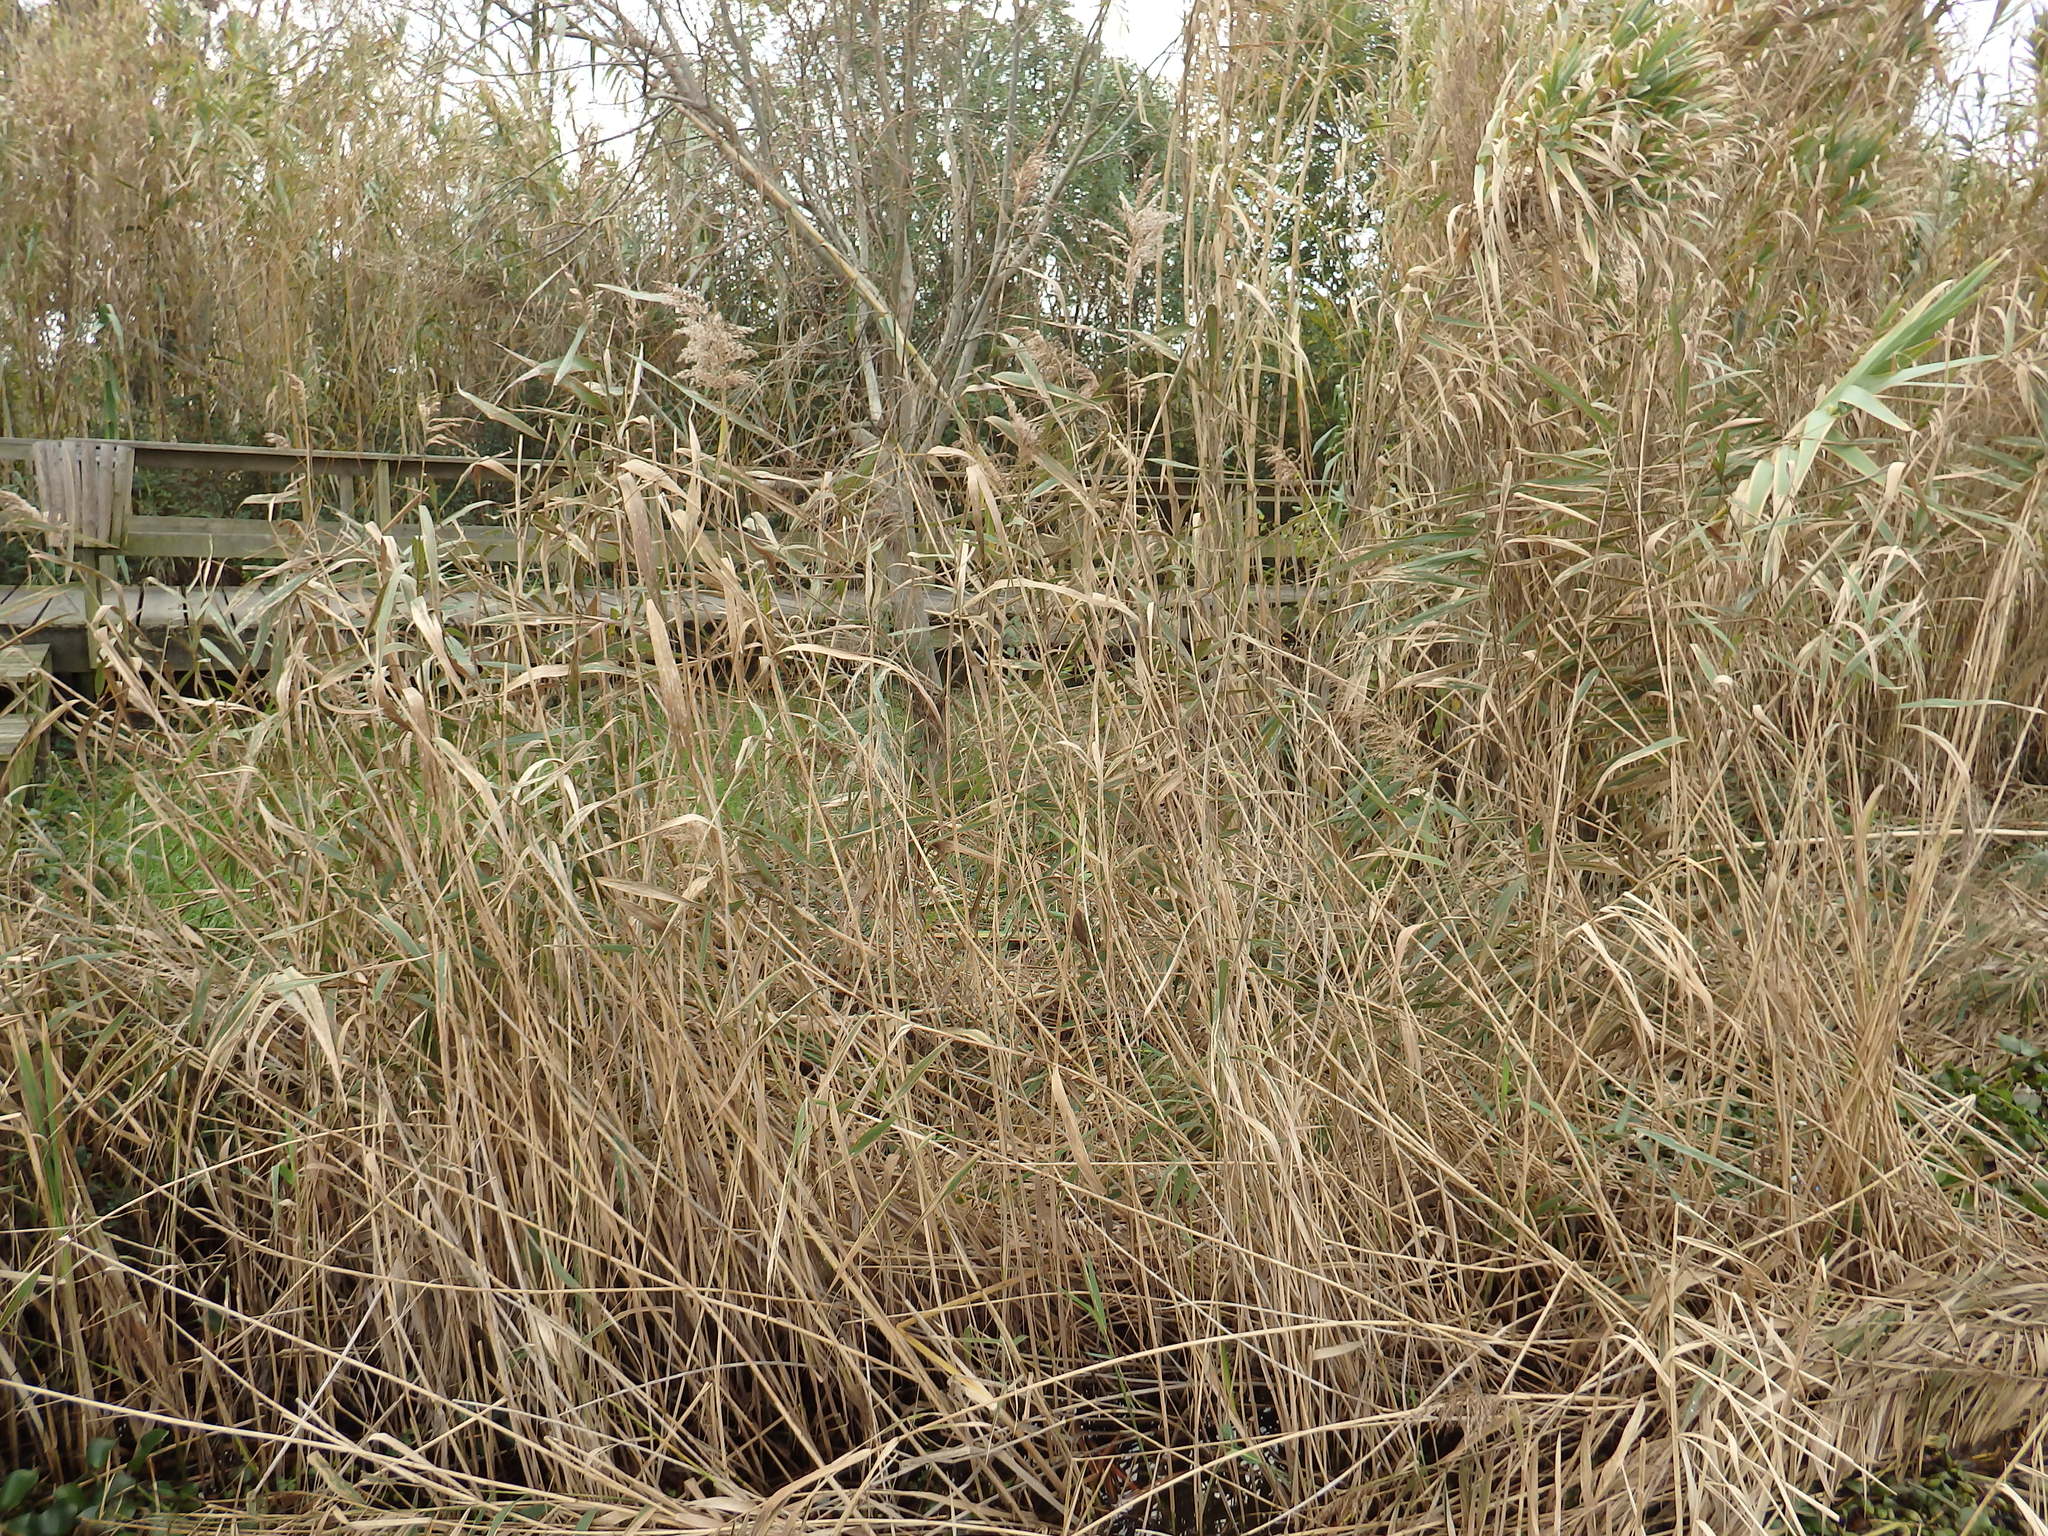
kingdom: Plantae
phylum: Tracheophyta
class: Liliopsida
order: Poales
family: Poaceae
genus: Phragmites
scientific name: Phragmites australis
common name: Common reed
